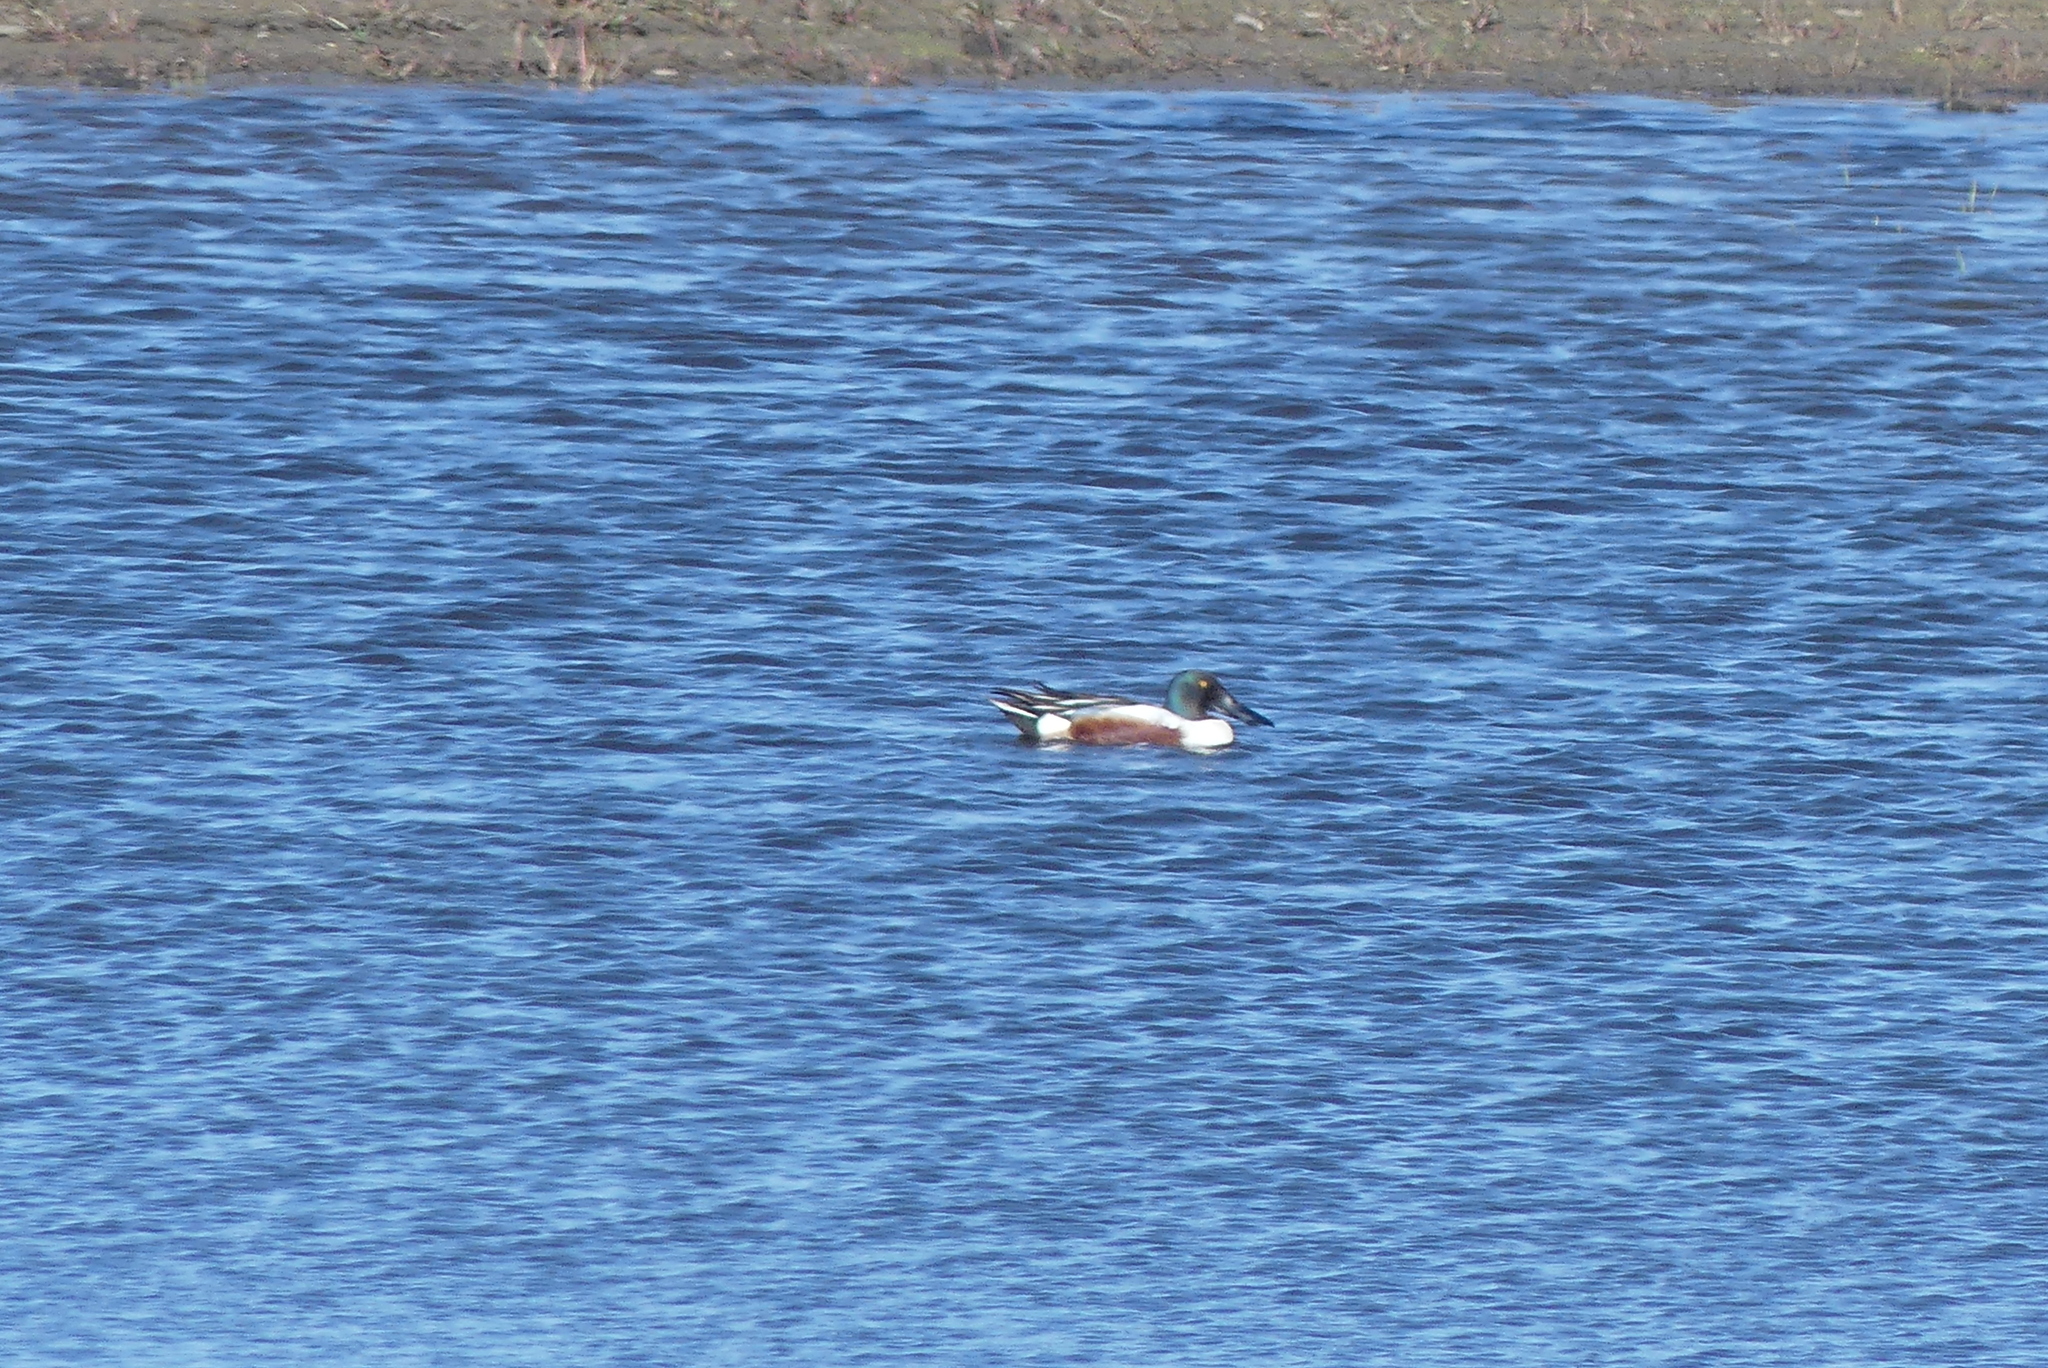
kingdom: Animalia
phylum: Chordata
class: Aves
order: Anseriformes
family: Anatidae
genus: Spatula
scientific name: Spatula clypeata
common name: Northern shoveler
